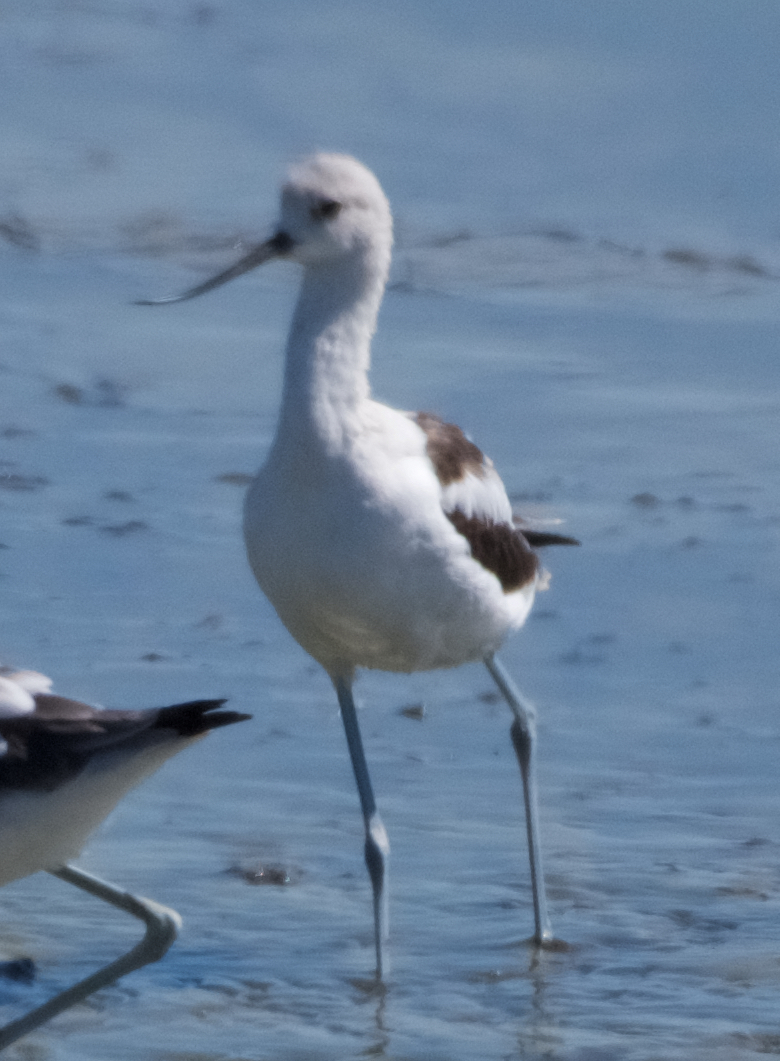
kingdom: Animalia
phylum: Chordata
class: Aves
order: Charadriiformes
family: Recurvirostridae
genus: Recurvirostra
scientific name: Recurvirostra americana
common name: American avocet
